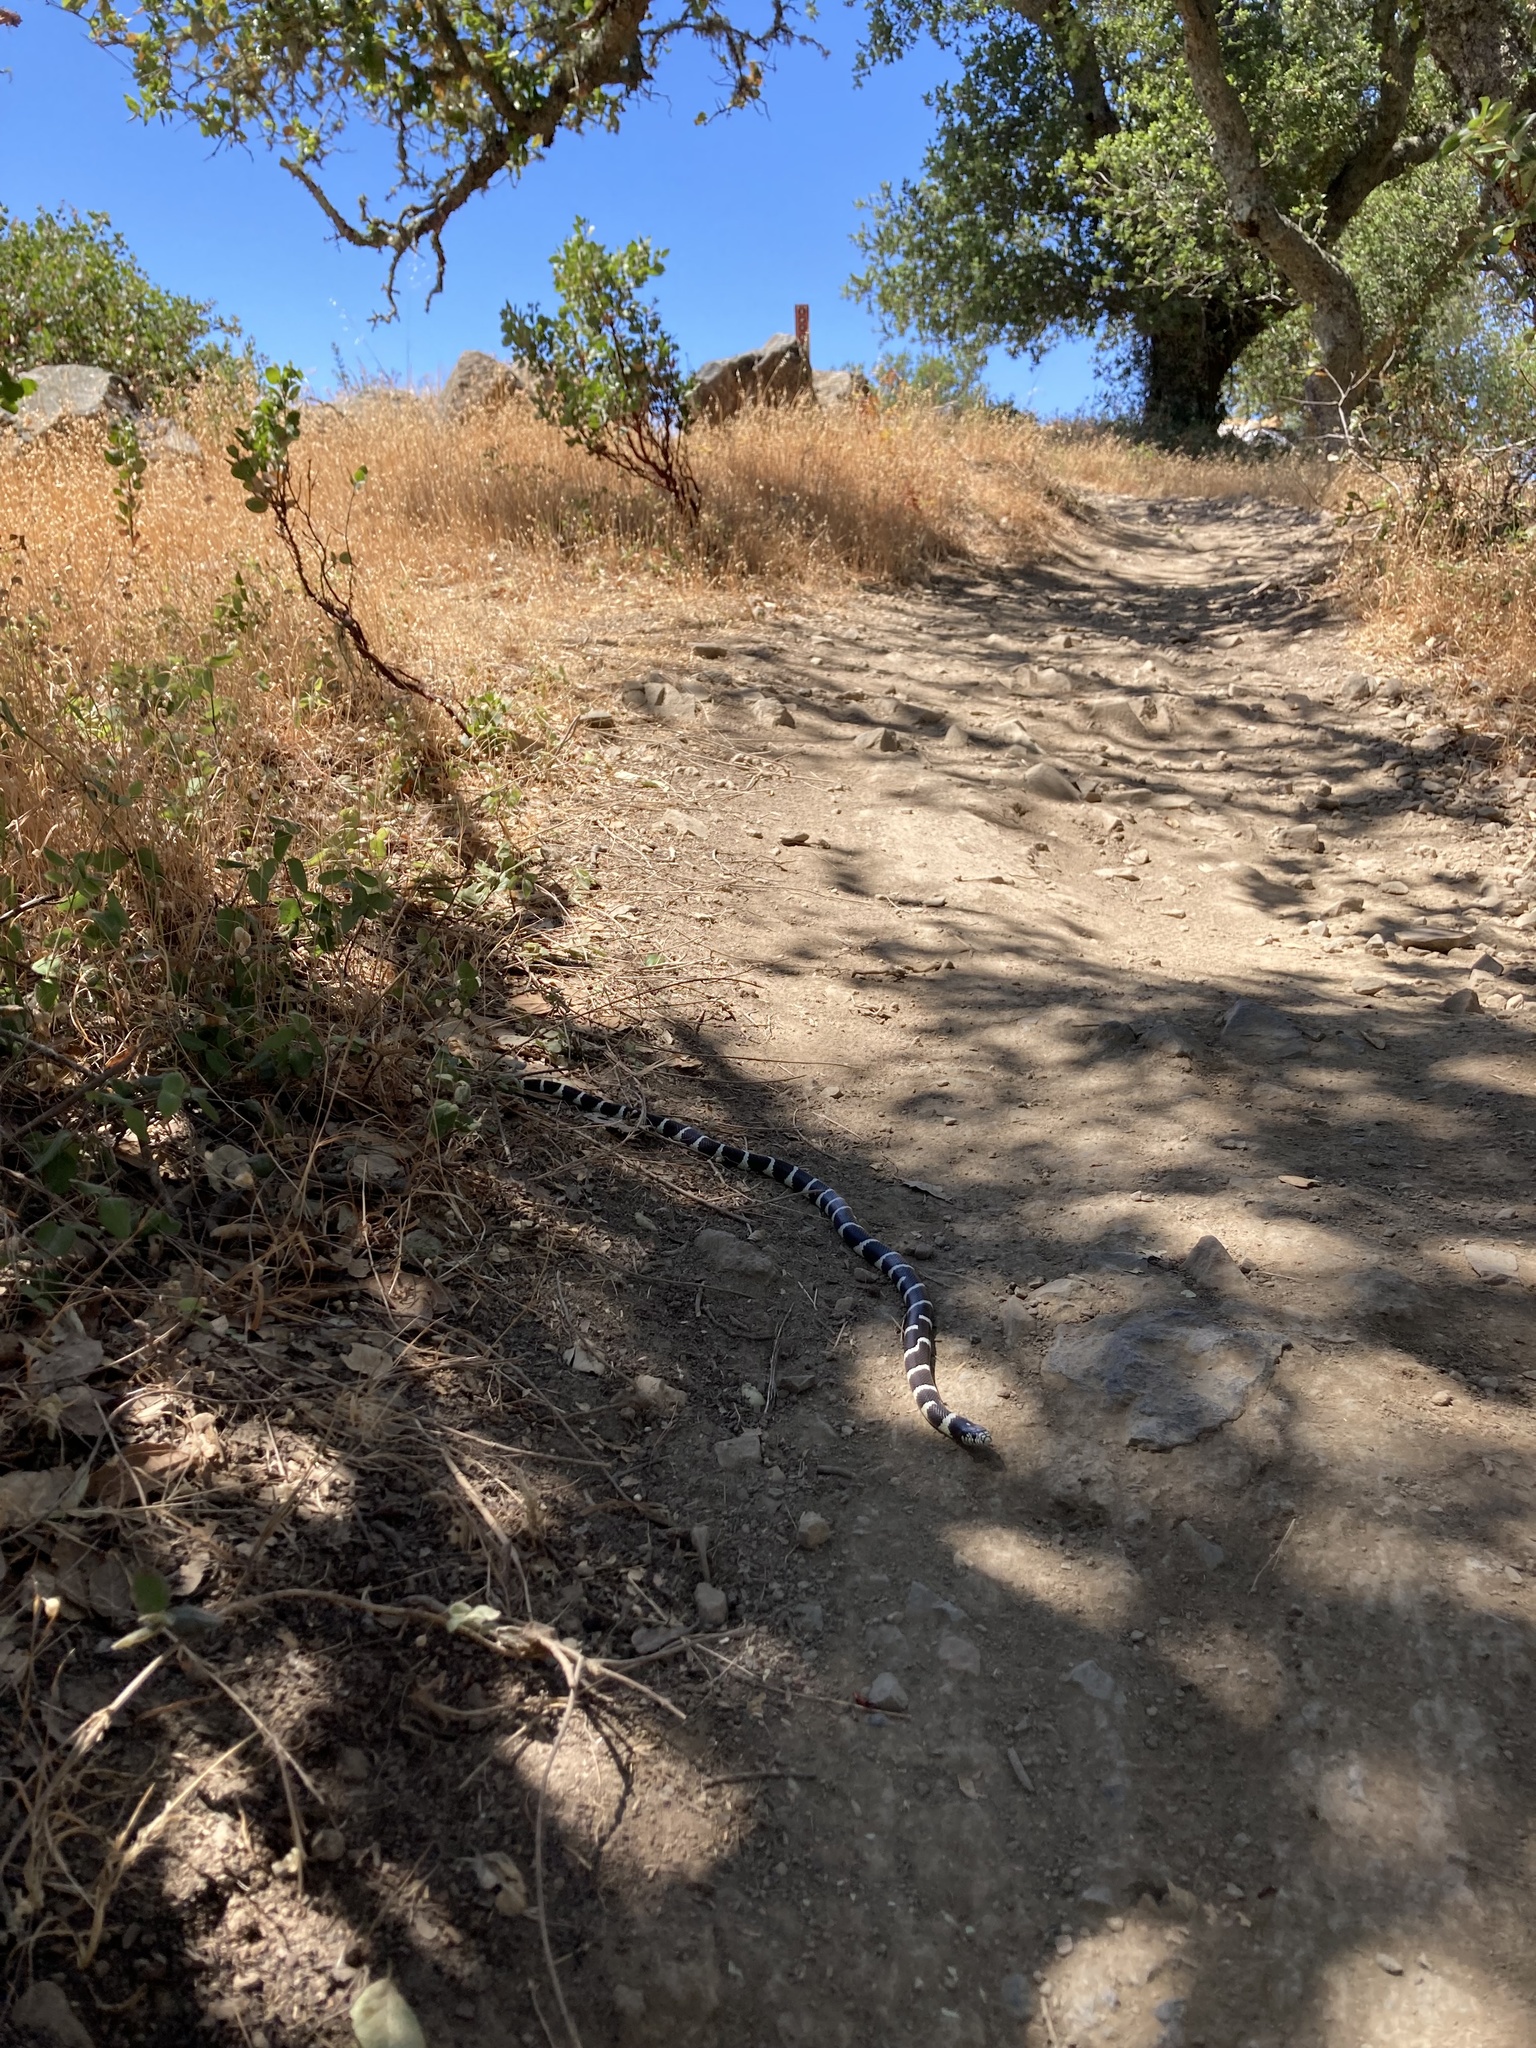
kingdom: Animalia
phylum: Chordata
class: Squamata
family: Colubridae
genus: Lampropeltis
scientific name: Lampropeltis californiae
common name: California kingsnake
